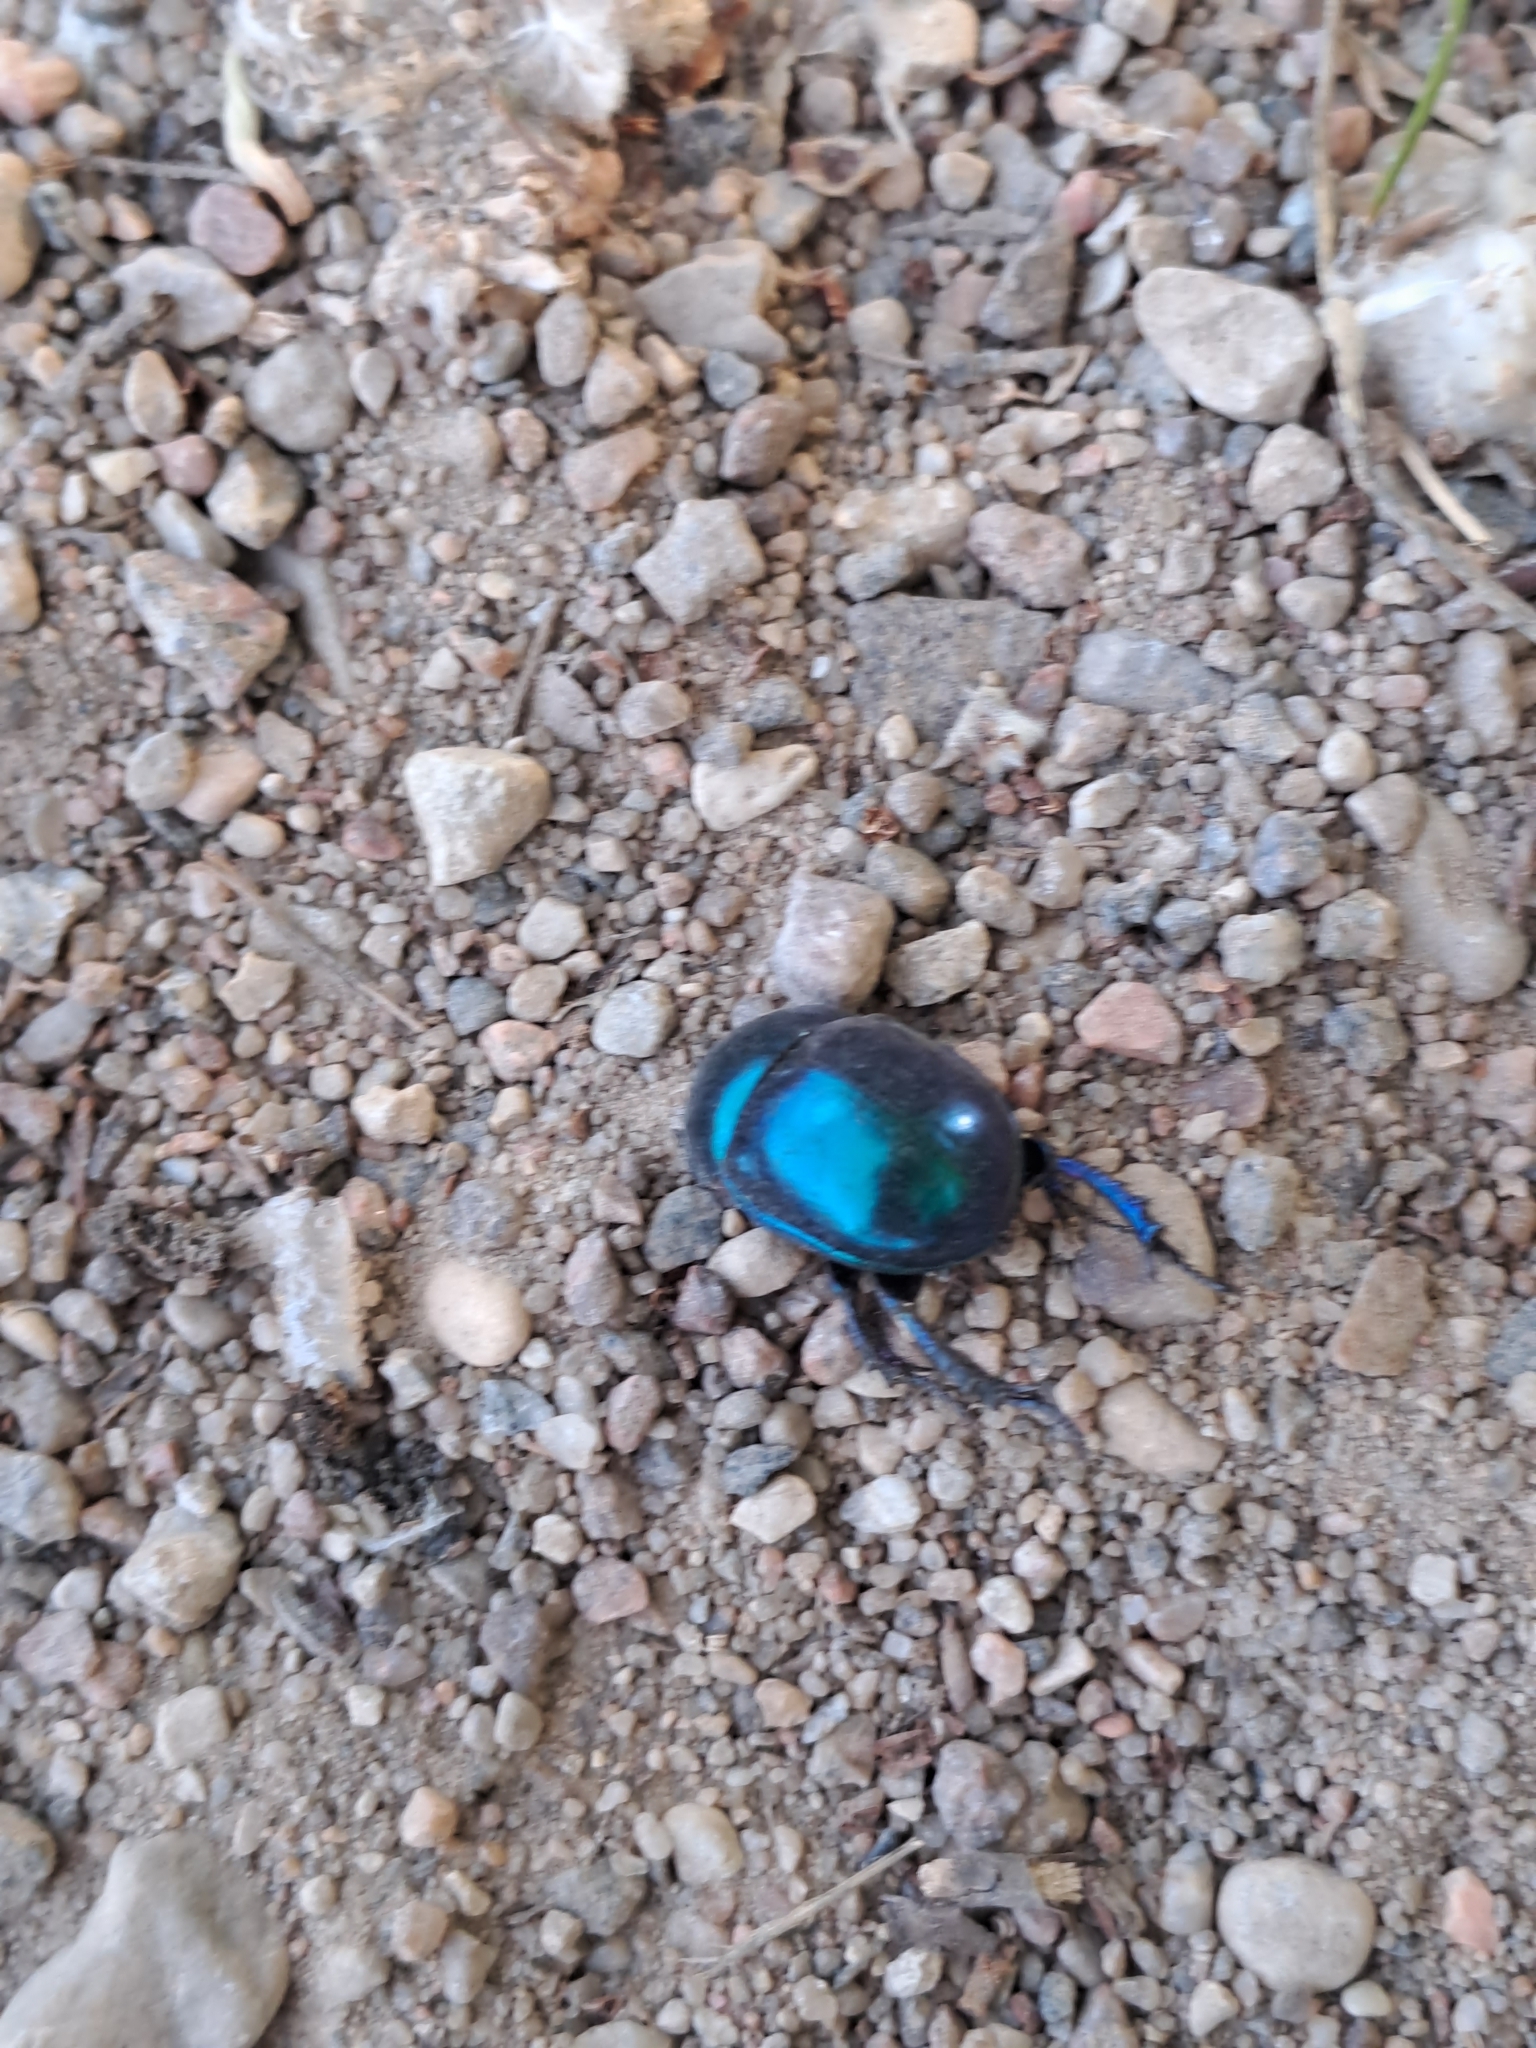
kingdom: Animalia
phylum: Arthropoda
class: Insecta
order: Coleoptera
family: Geotrupidae
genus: Trypocopris
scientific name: Trypocopris vernalis
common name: Spring dumbledor
